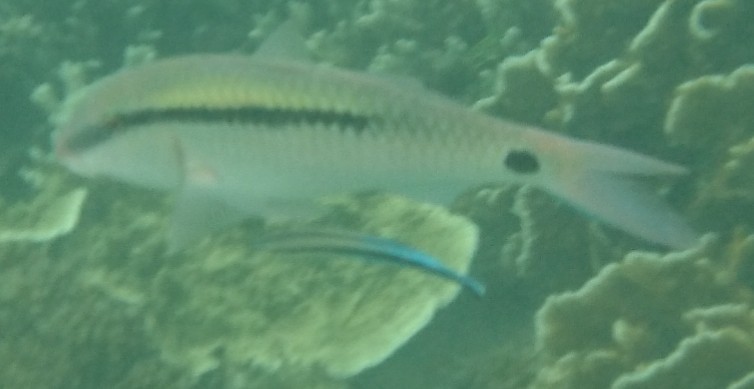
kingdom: Animalia
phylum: Chordata
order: Perciformes
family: Mullidae
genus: Parupeneus
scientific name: Parupeneus barberinus
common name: Dash-and-dot goatfish
